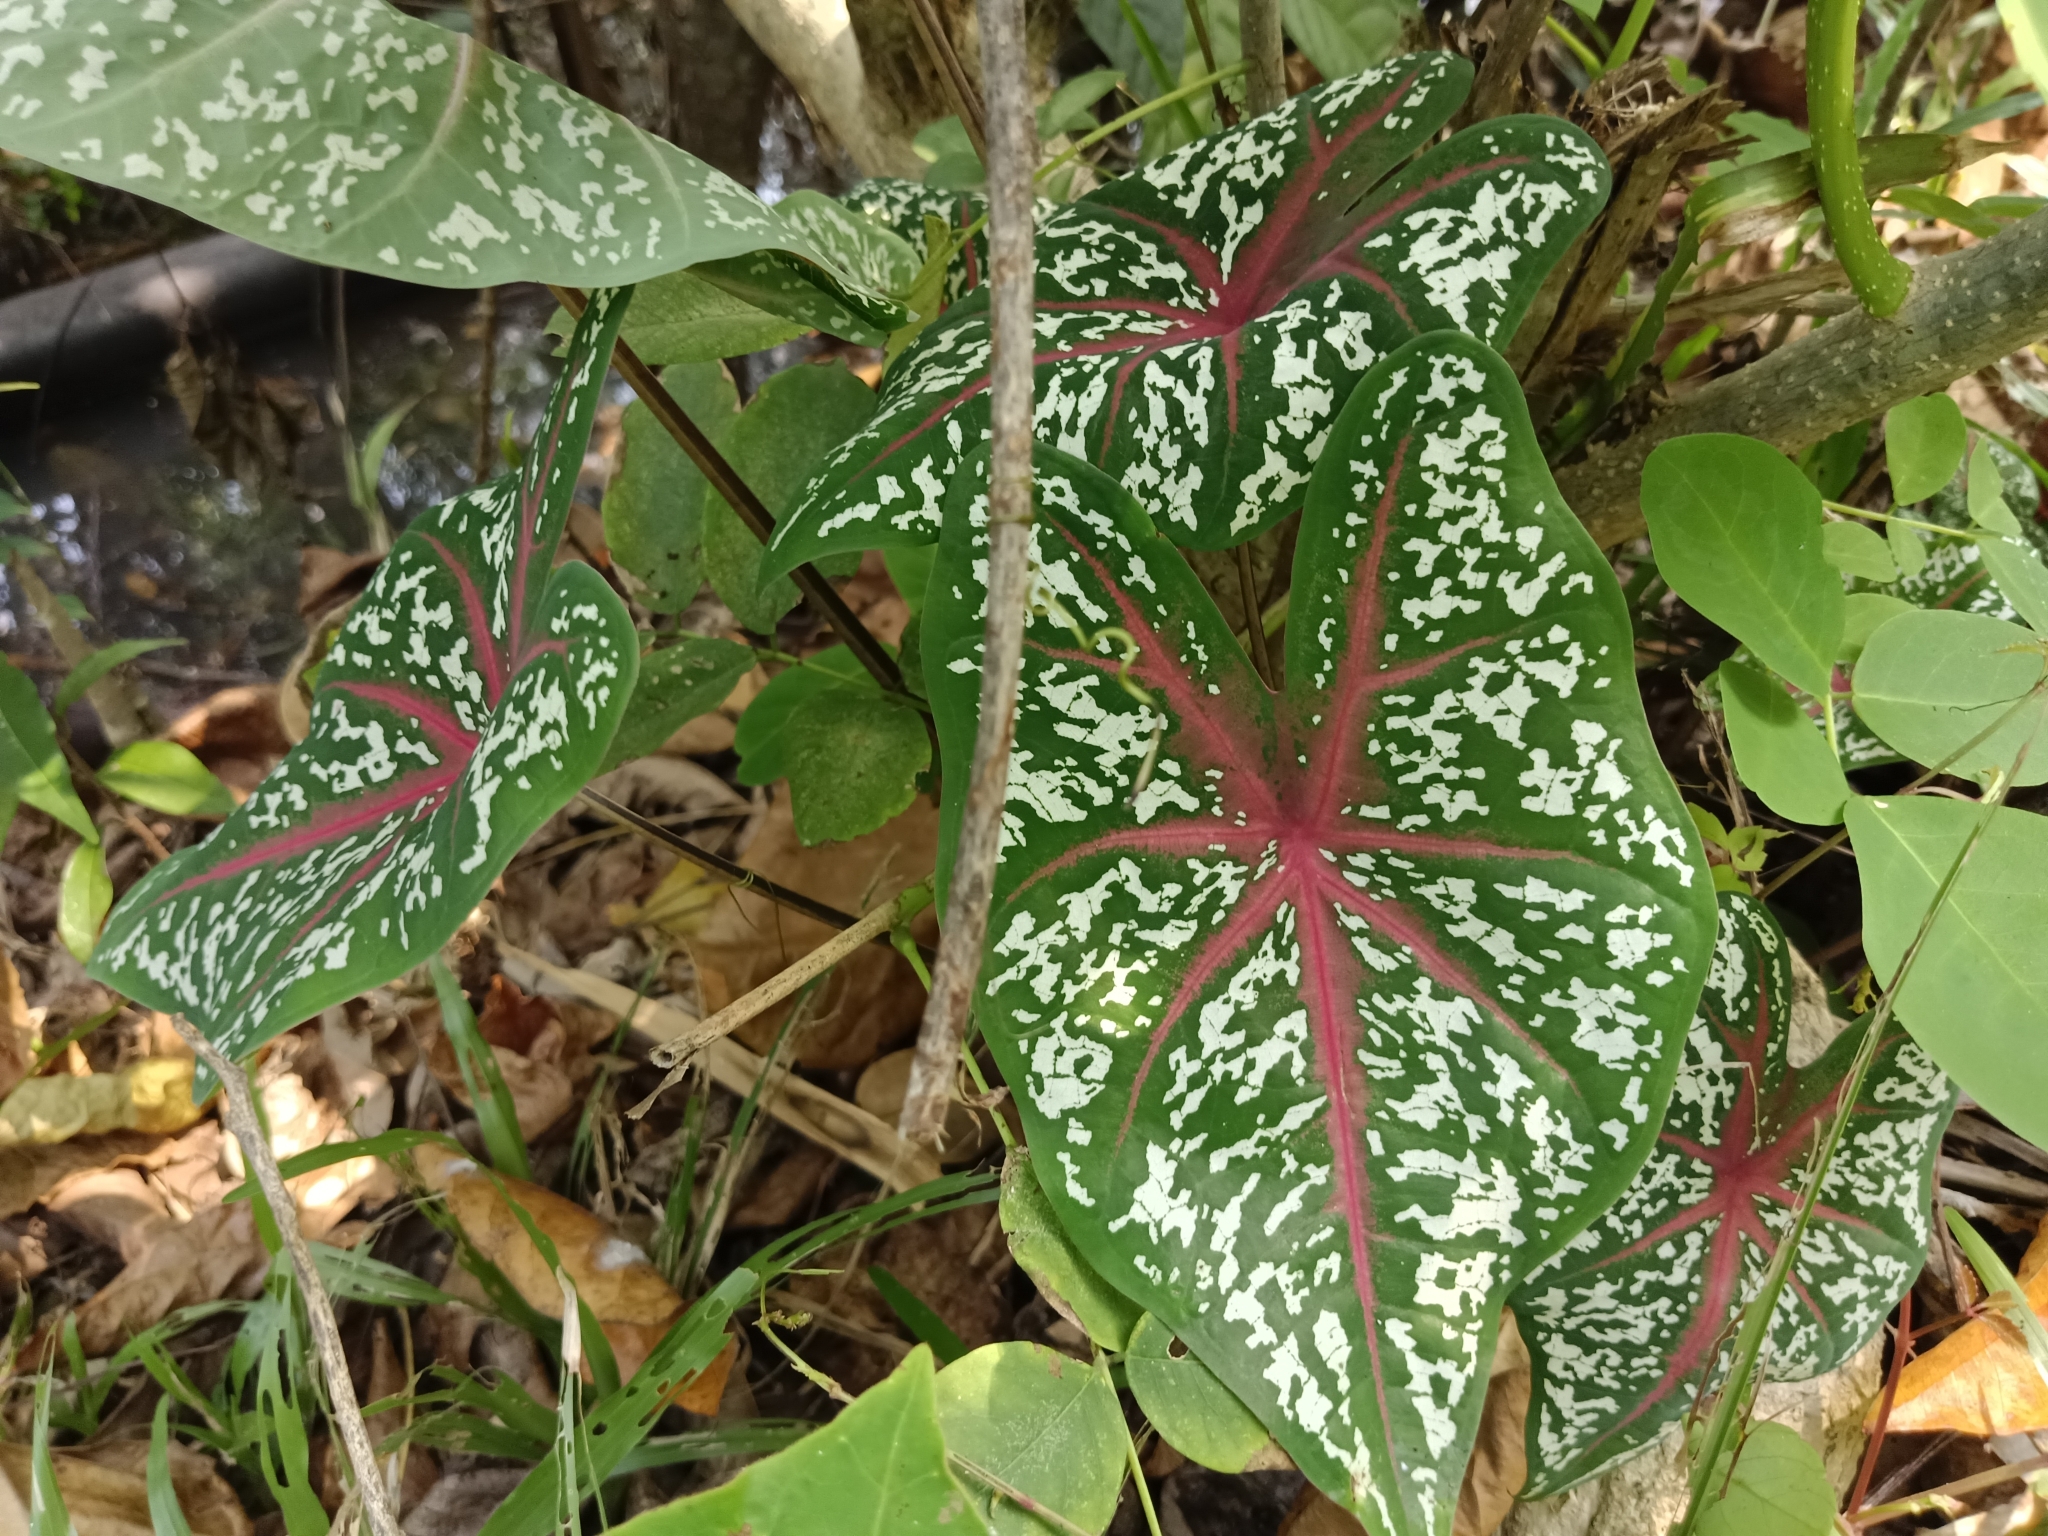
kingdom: Plantae
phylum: Tracheophyta
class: Liliopsida
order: Alismatales
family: Araceae
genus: Caladium
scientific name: Caladium bicolor
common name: Artist's pallet
